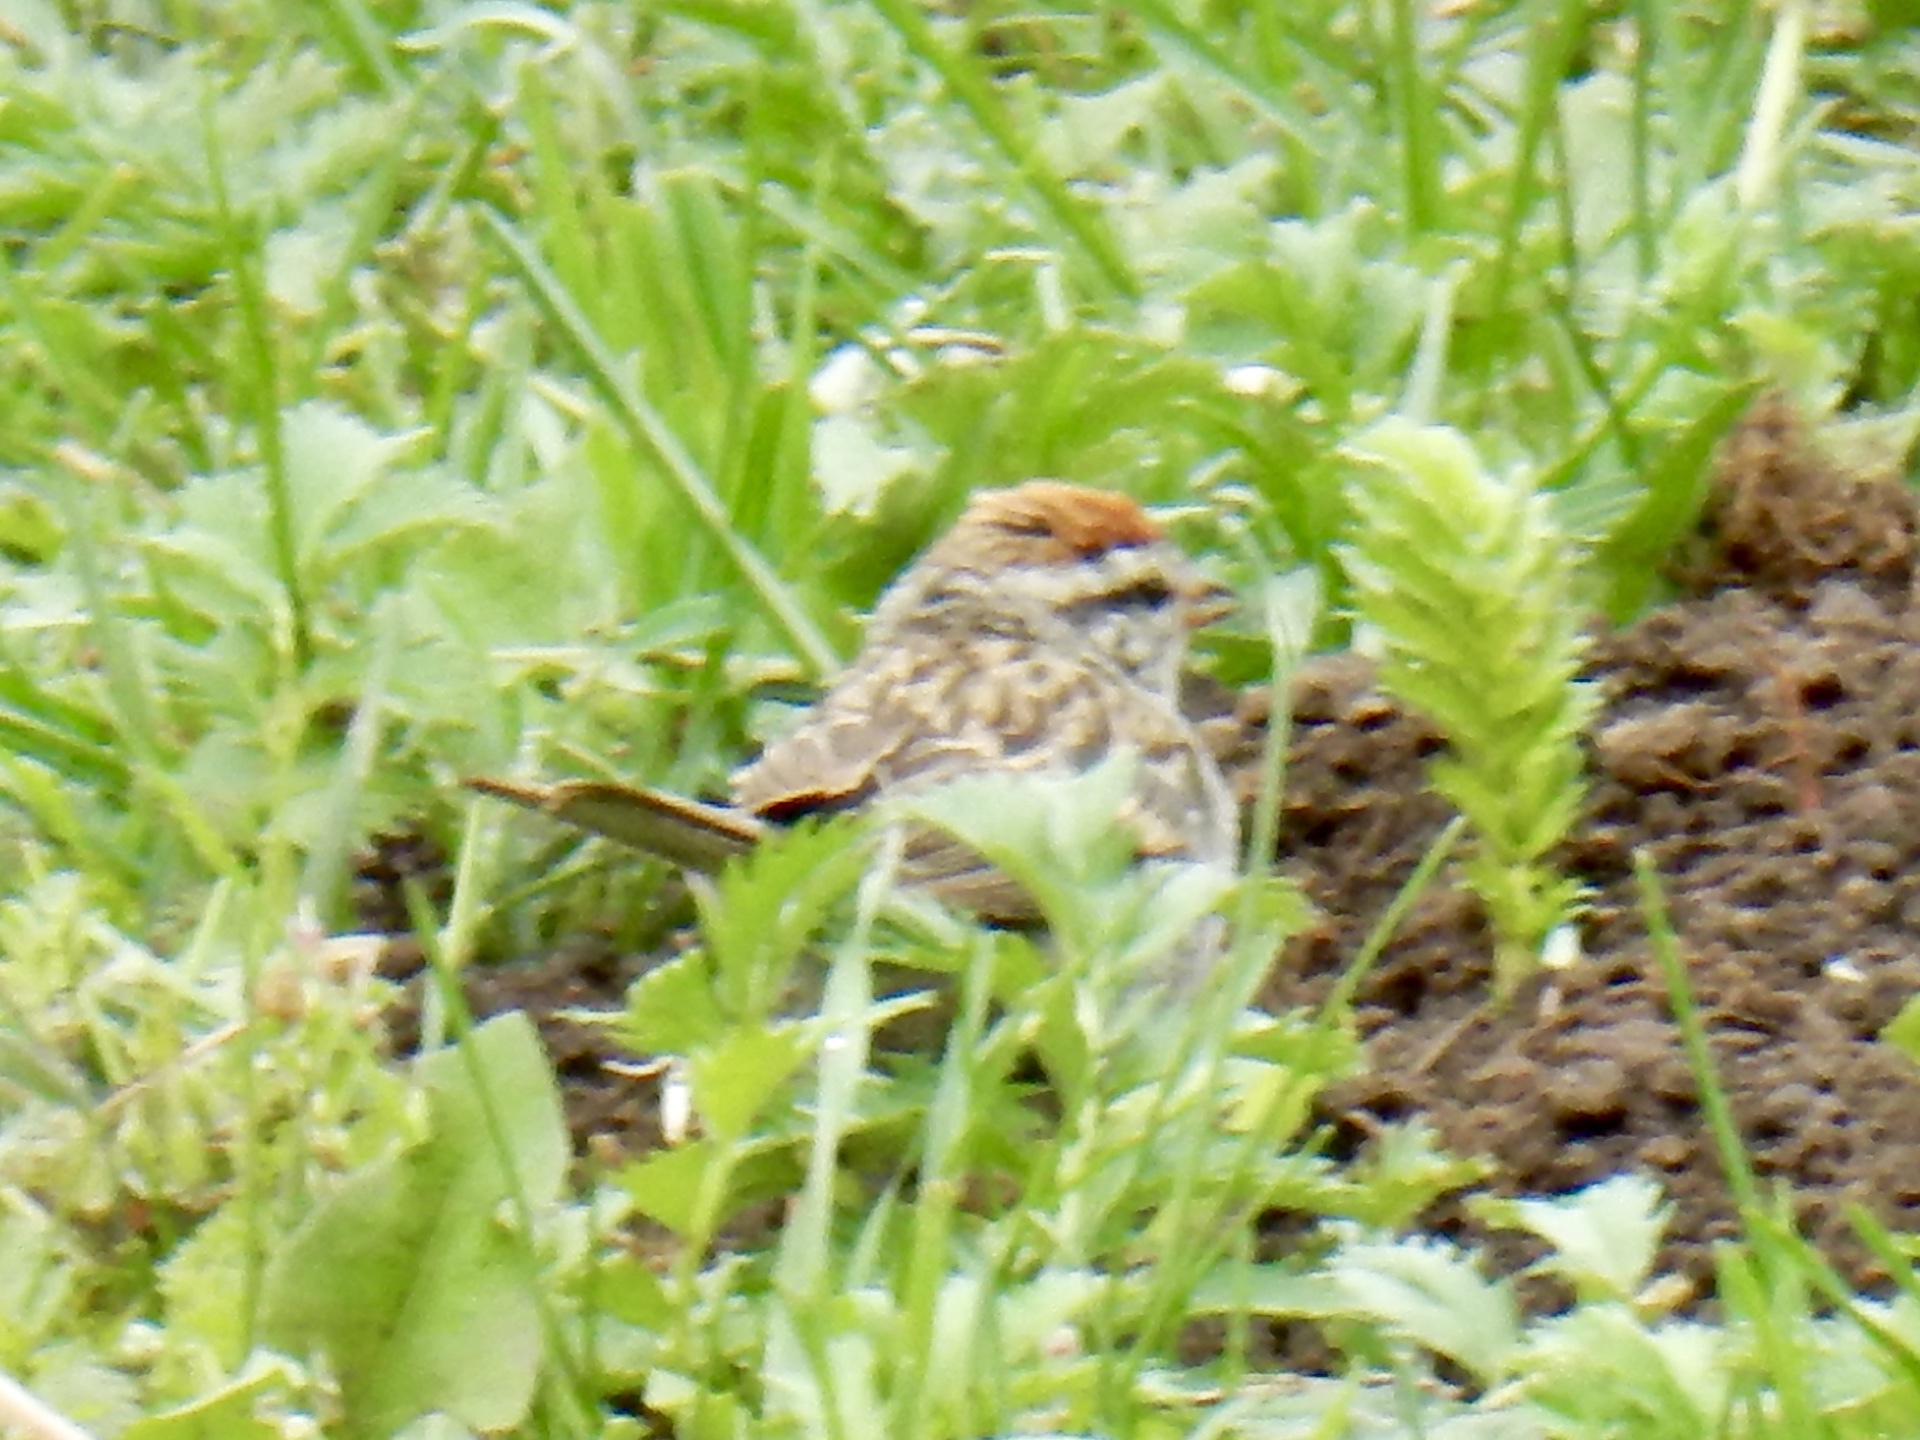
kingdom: Animalia
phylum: Chordata
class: Aves
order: Passeriformes
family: Passerellidae
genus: Spizella
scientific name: Spizella passerina
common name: Chipping sparrow
